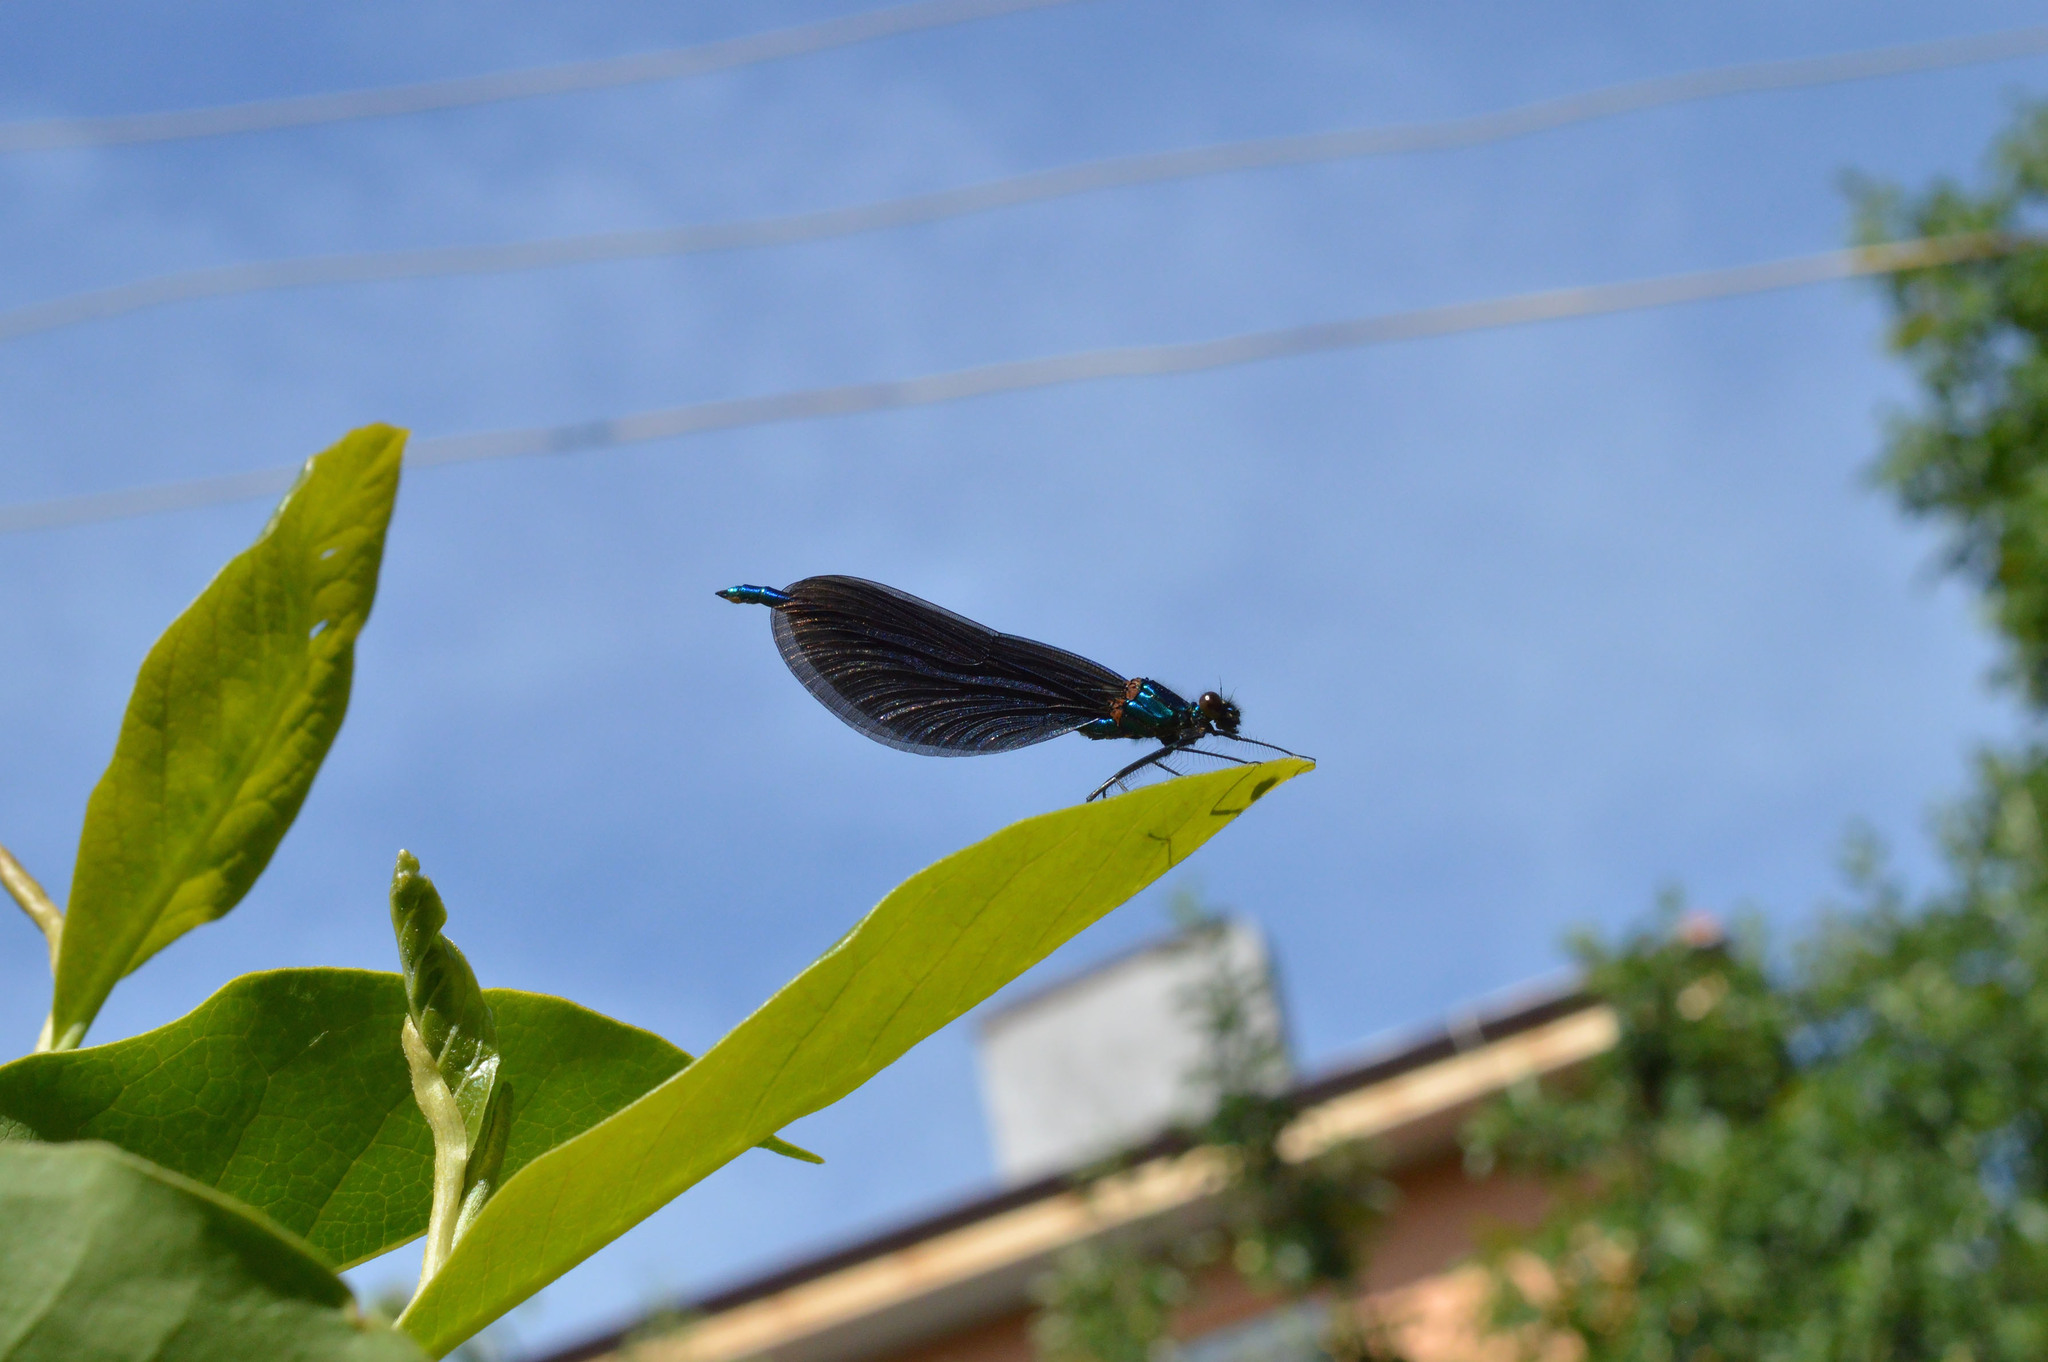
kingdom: Animalia
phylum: Arthropoda
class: Insecta
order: Odonata
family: Calopterygidae
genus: Calopteryx
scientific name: Calopteryx virgo
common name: Beautiful demoiselle
